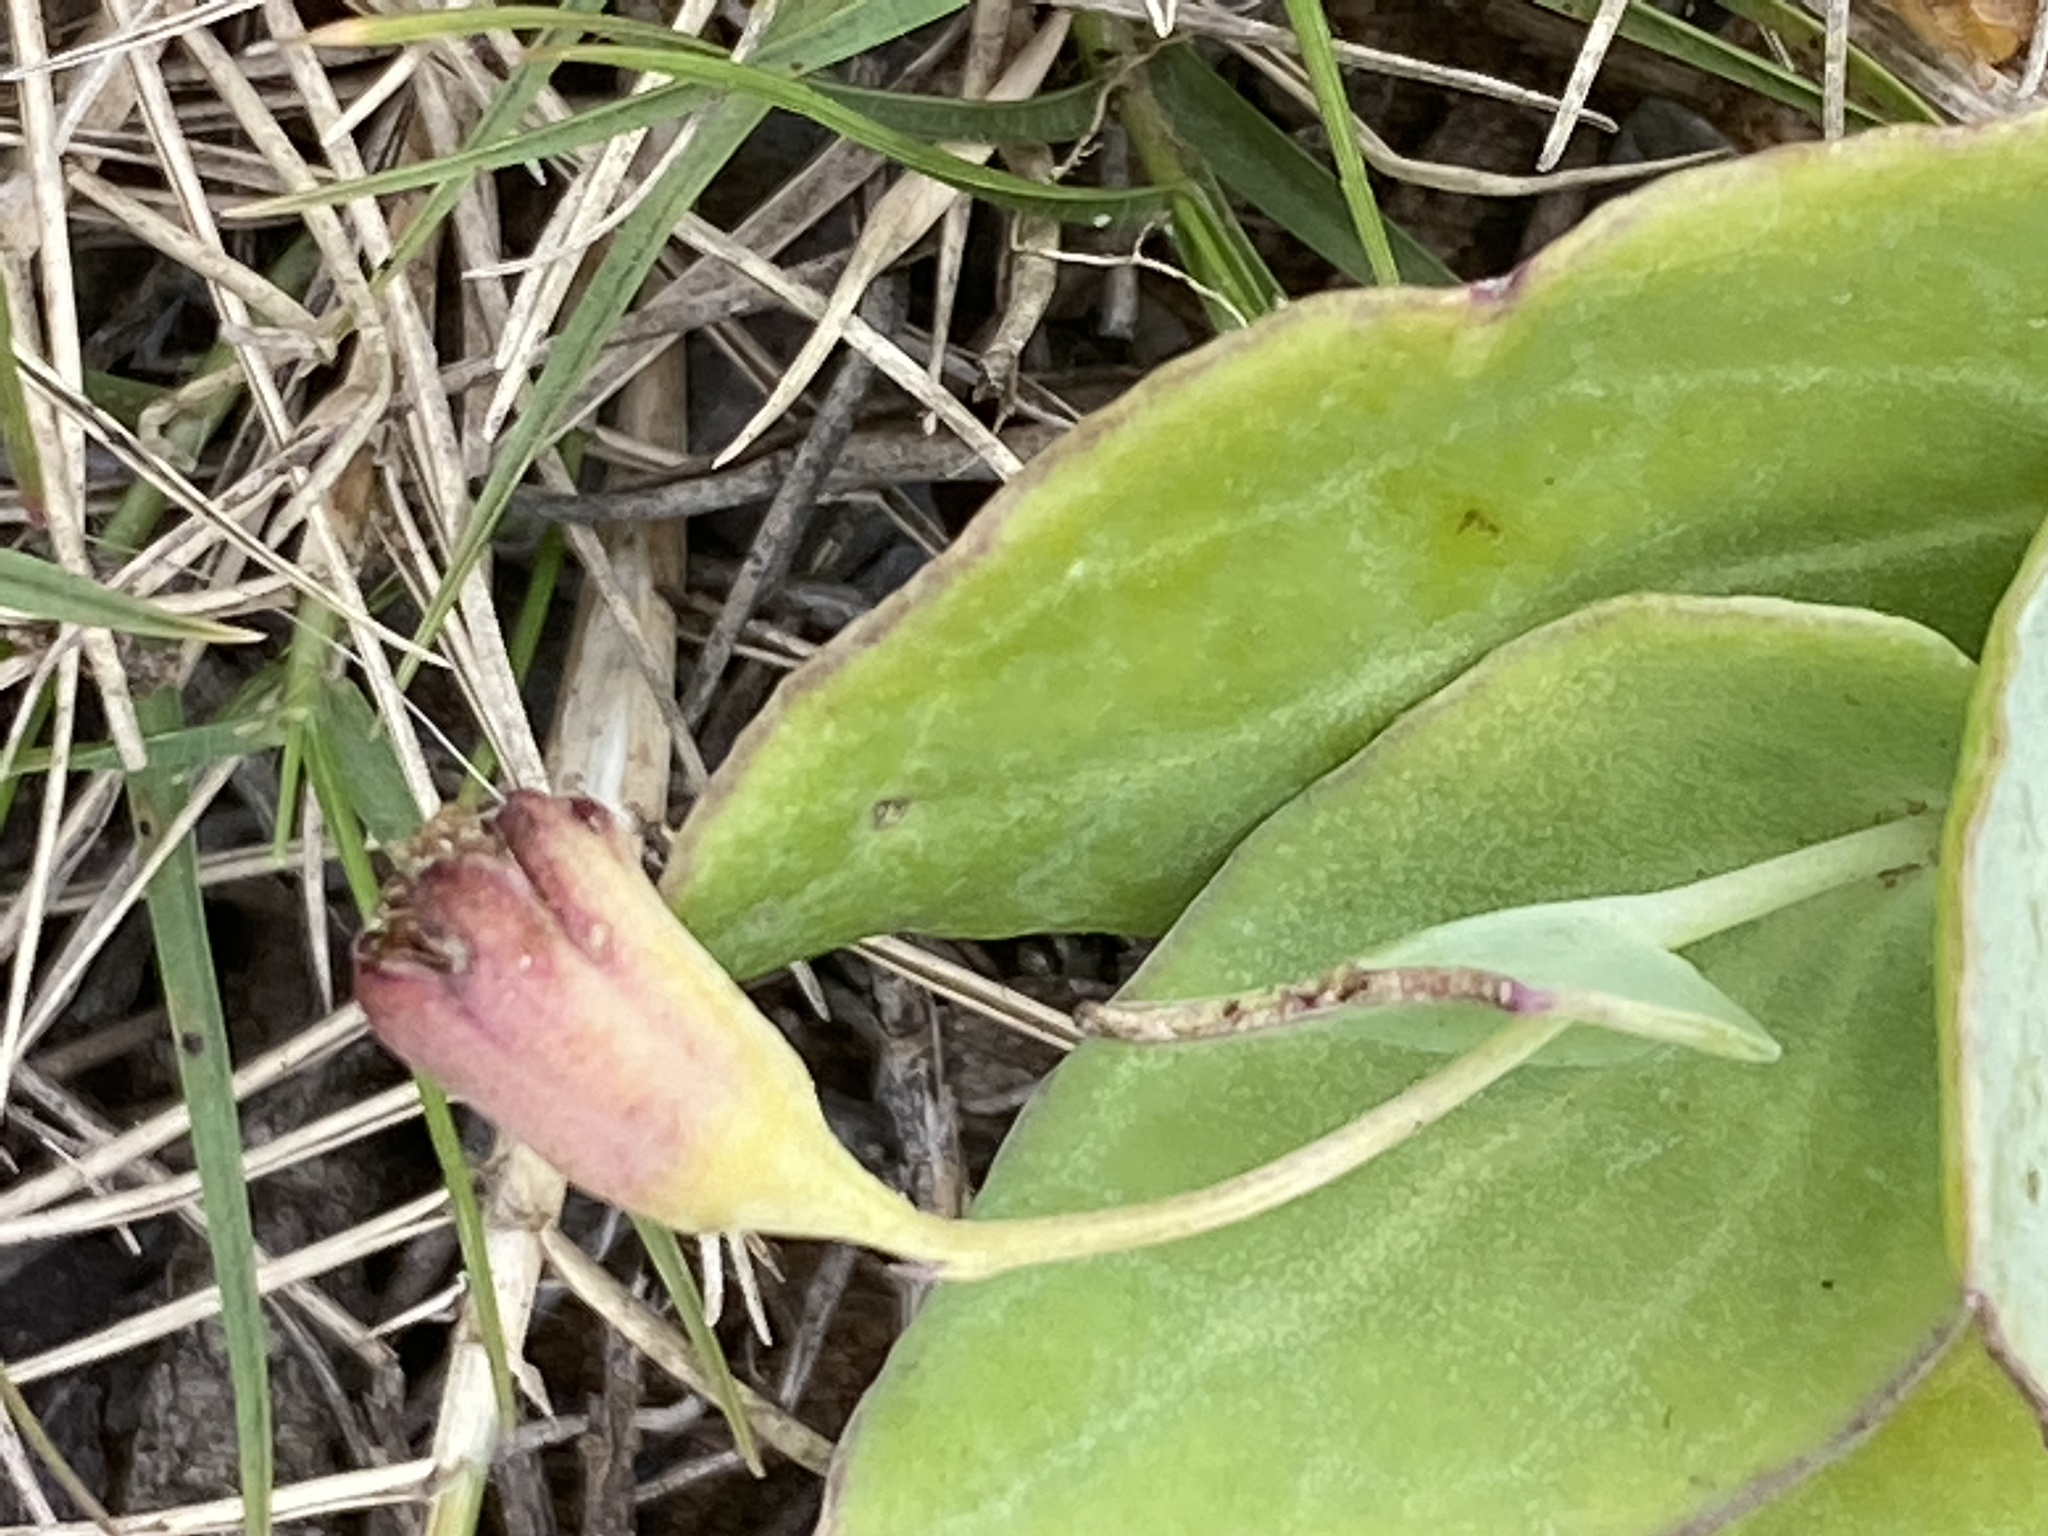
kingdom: Plantae
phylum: Tracheophyta
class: Magnoliopsida
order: Asterales
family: Asteraceae
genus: Othonna
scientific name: Othonna undulosa
